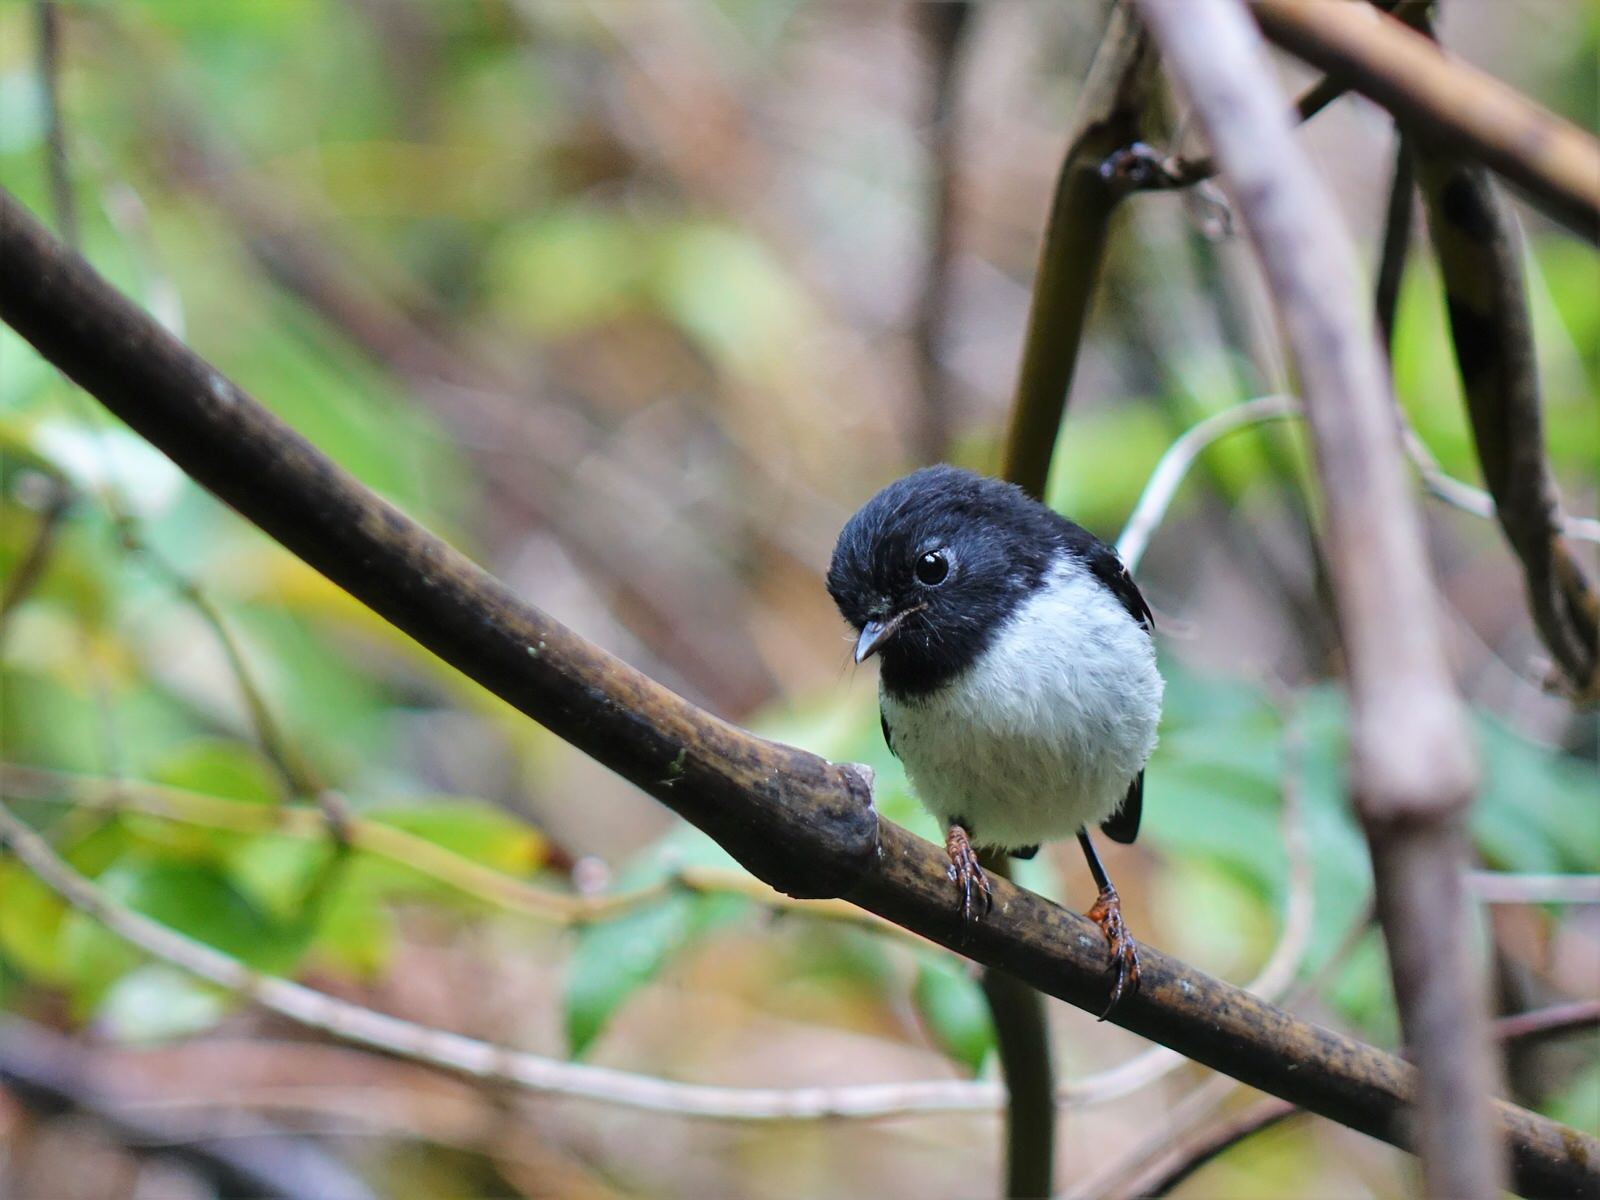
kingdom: Animalia
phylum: Chordata
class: Aves
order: Passeriformes
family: Petroicidae
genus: Petroica
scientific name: Petroica macrocephala
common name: Tomtit
